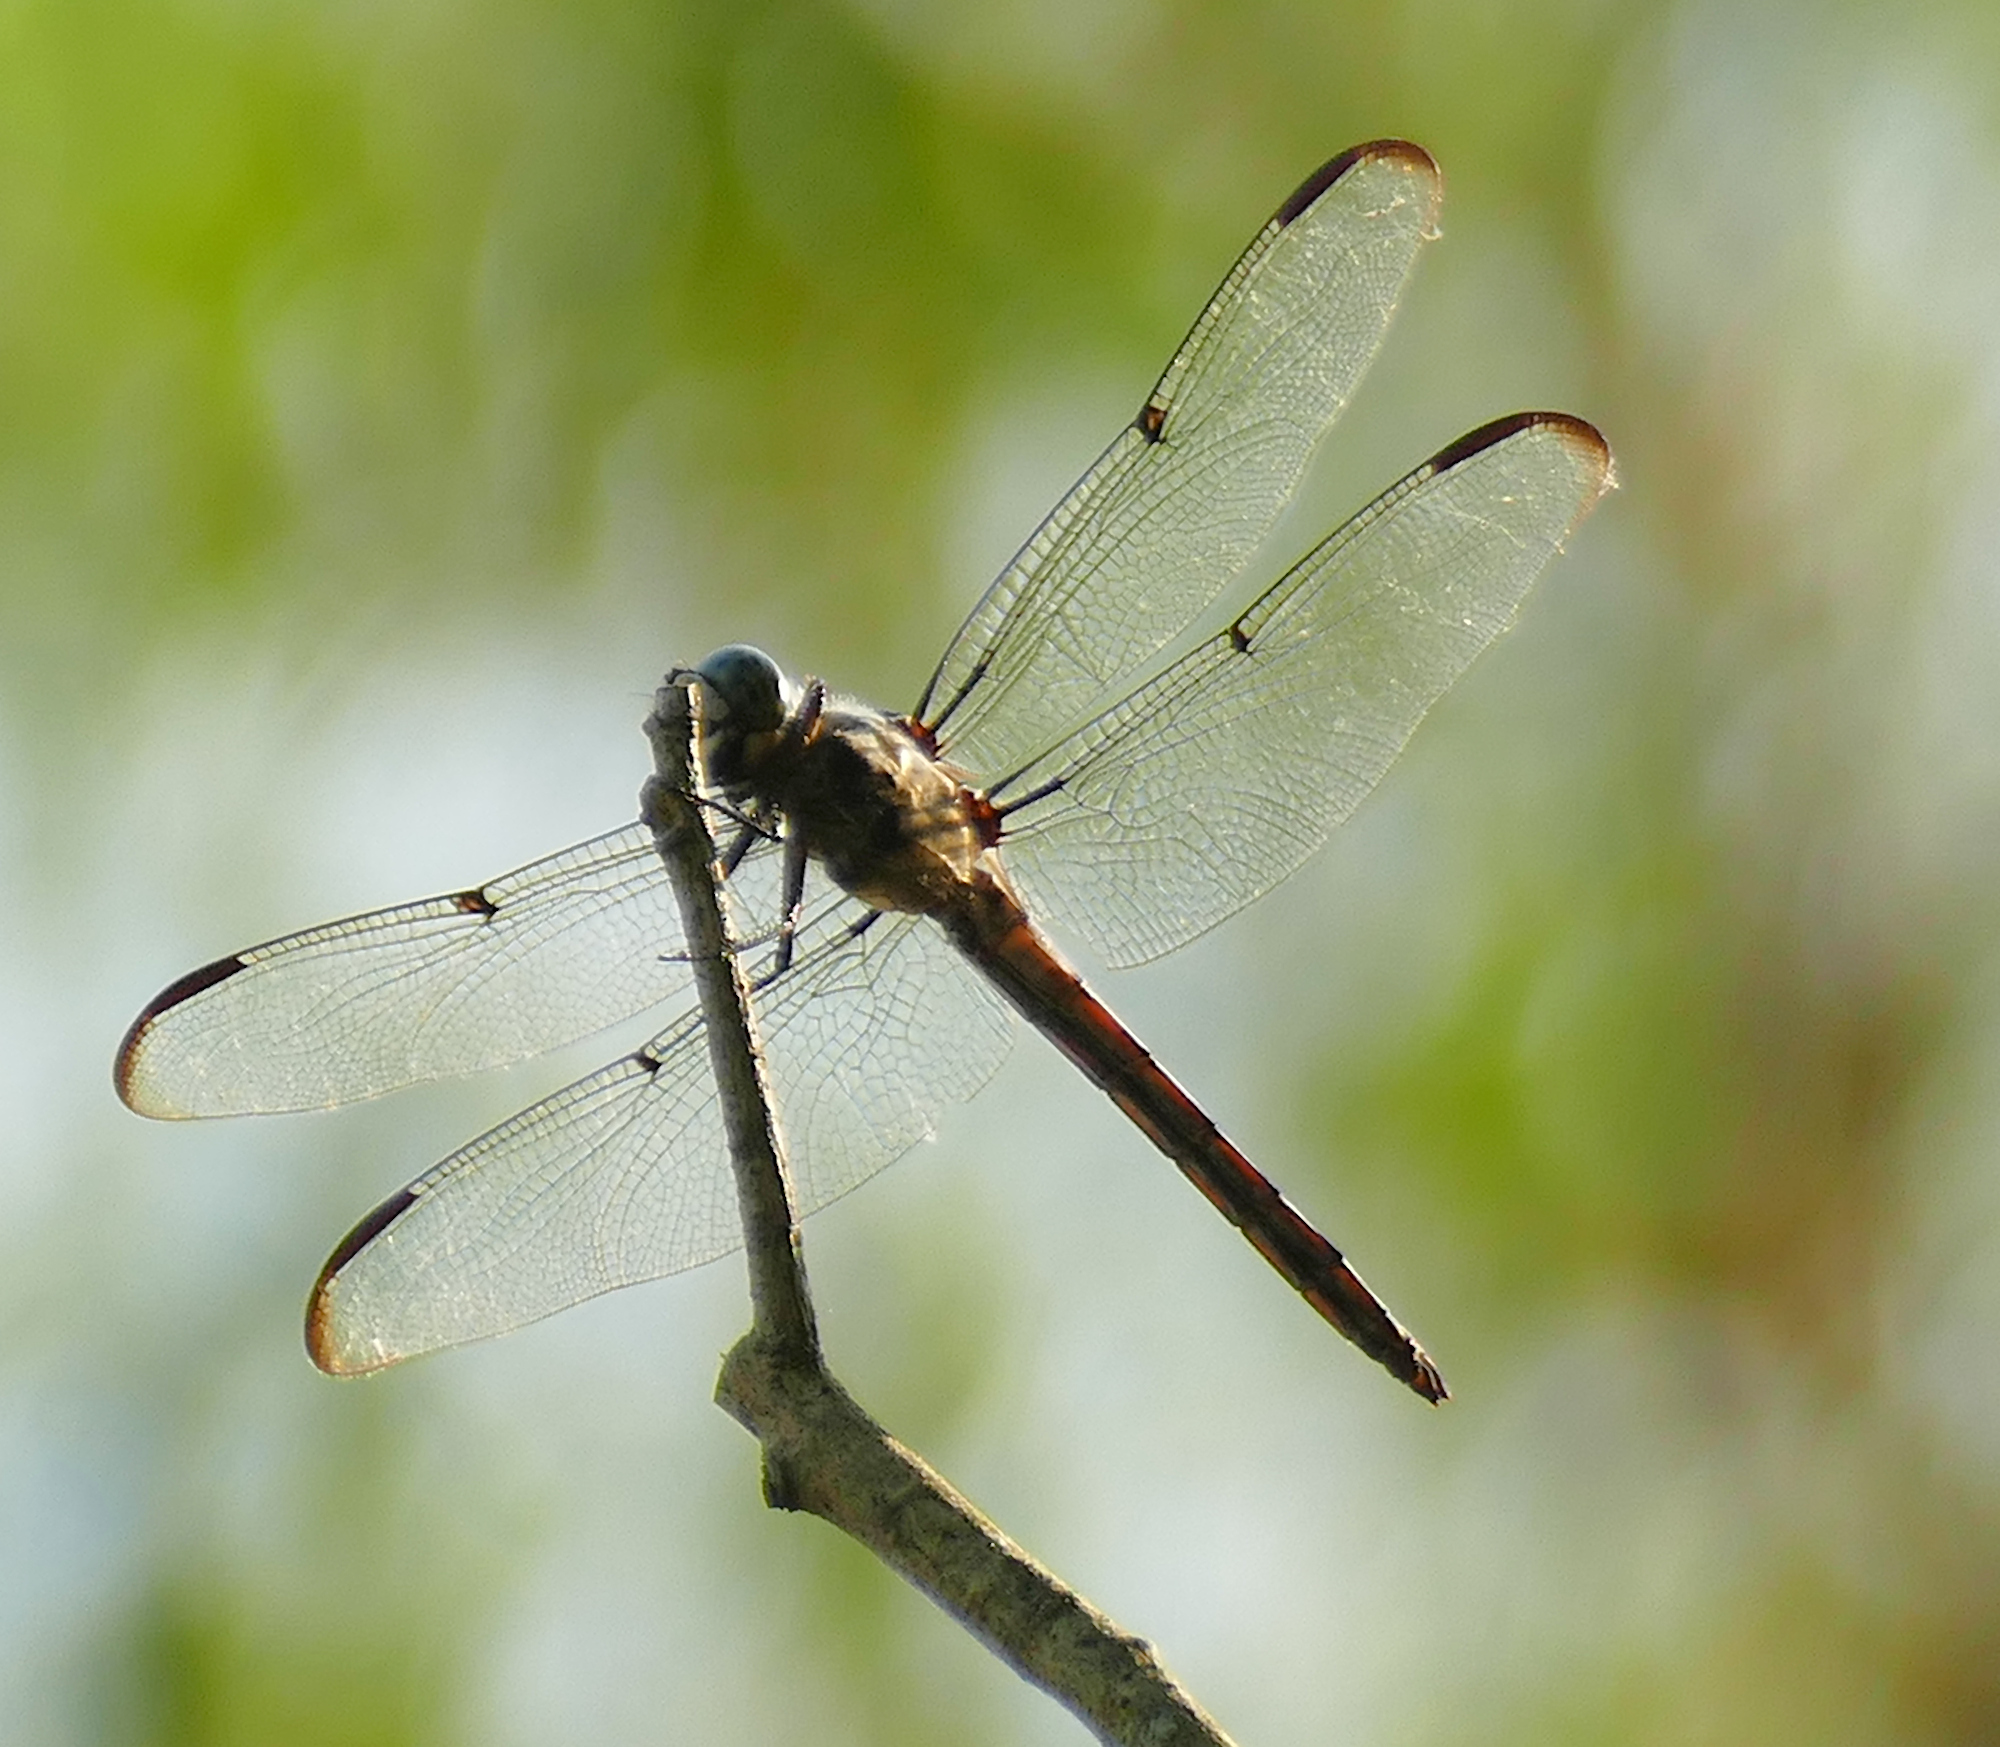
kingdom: Animalia
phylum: Arthropoda
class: Insecta
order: Odonata
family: Libellulidae
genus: Libellula
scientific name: Libellula vibrans
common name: Great blue skimmer
